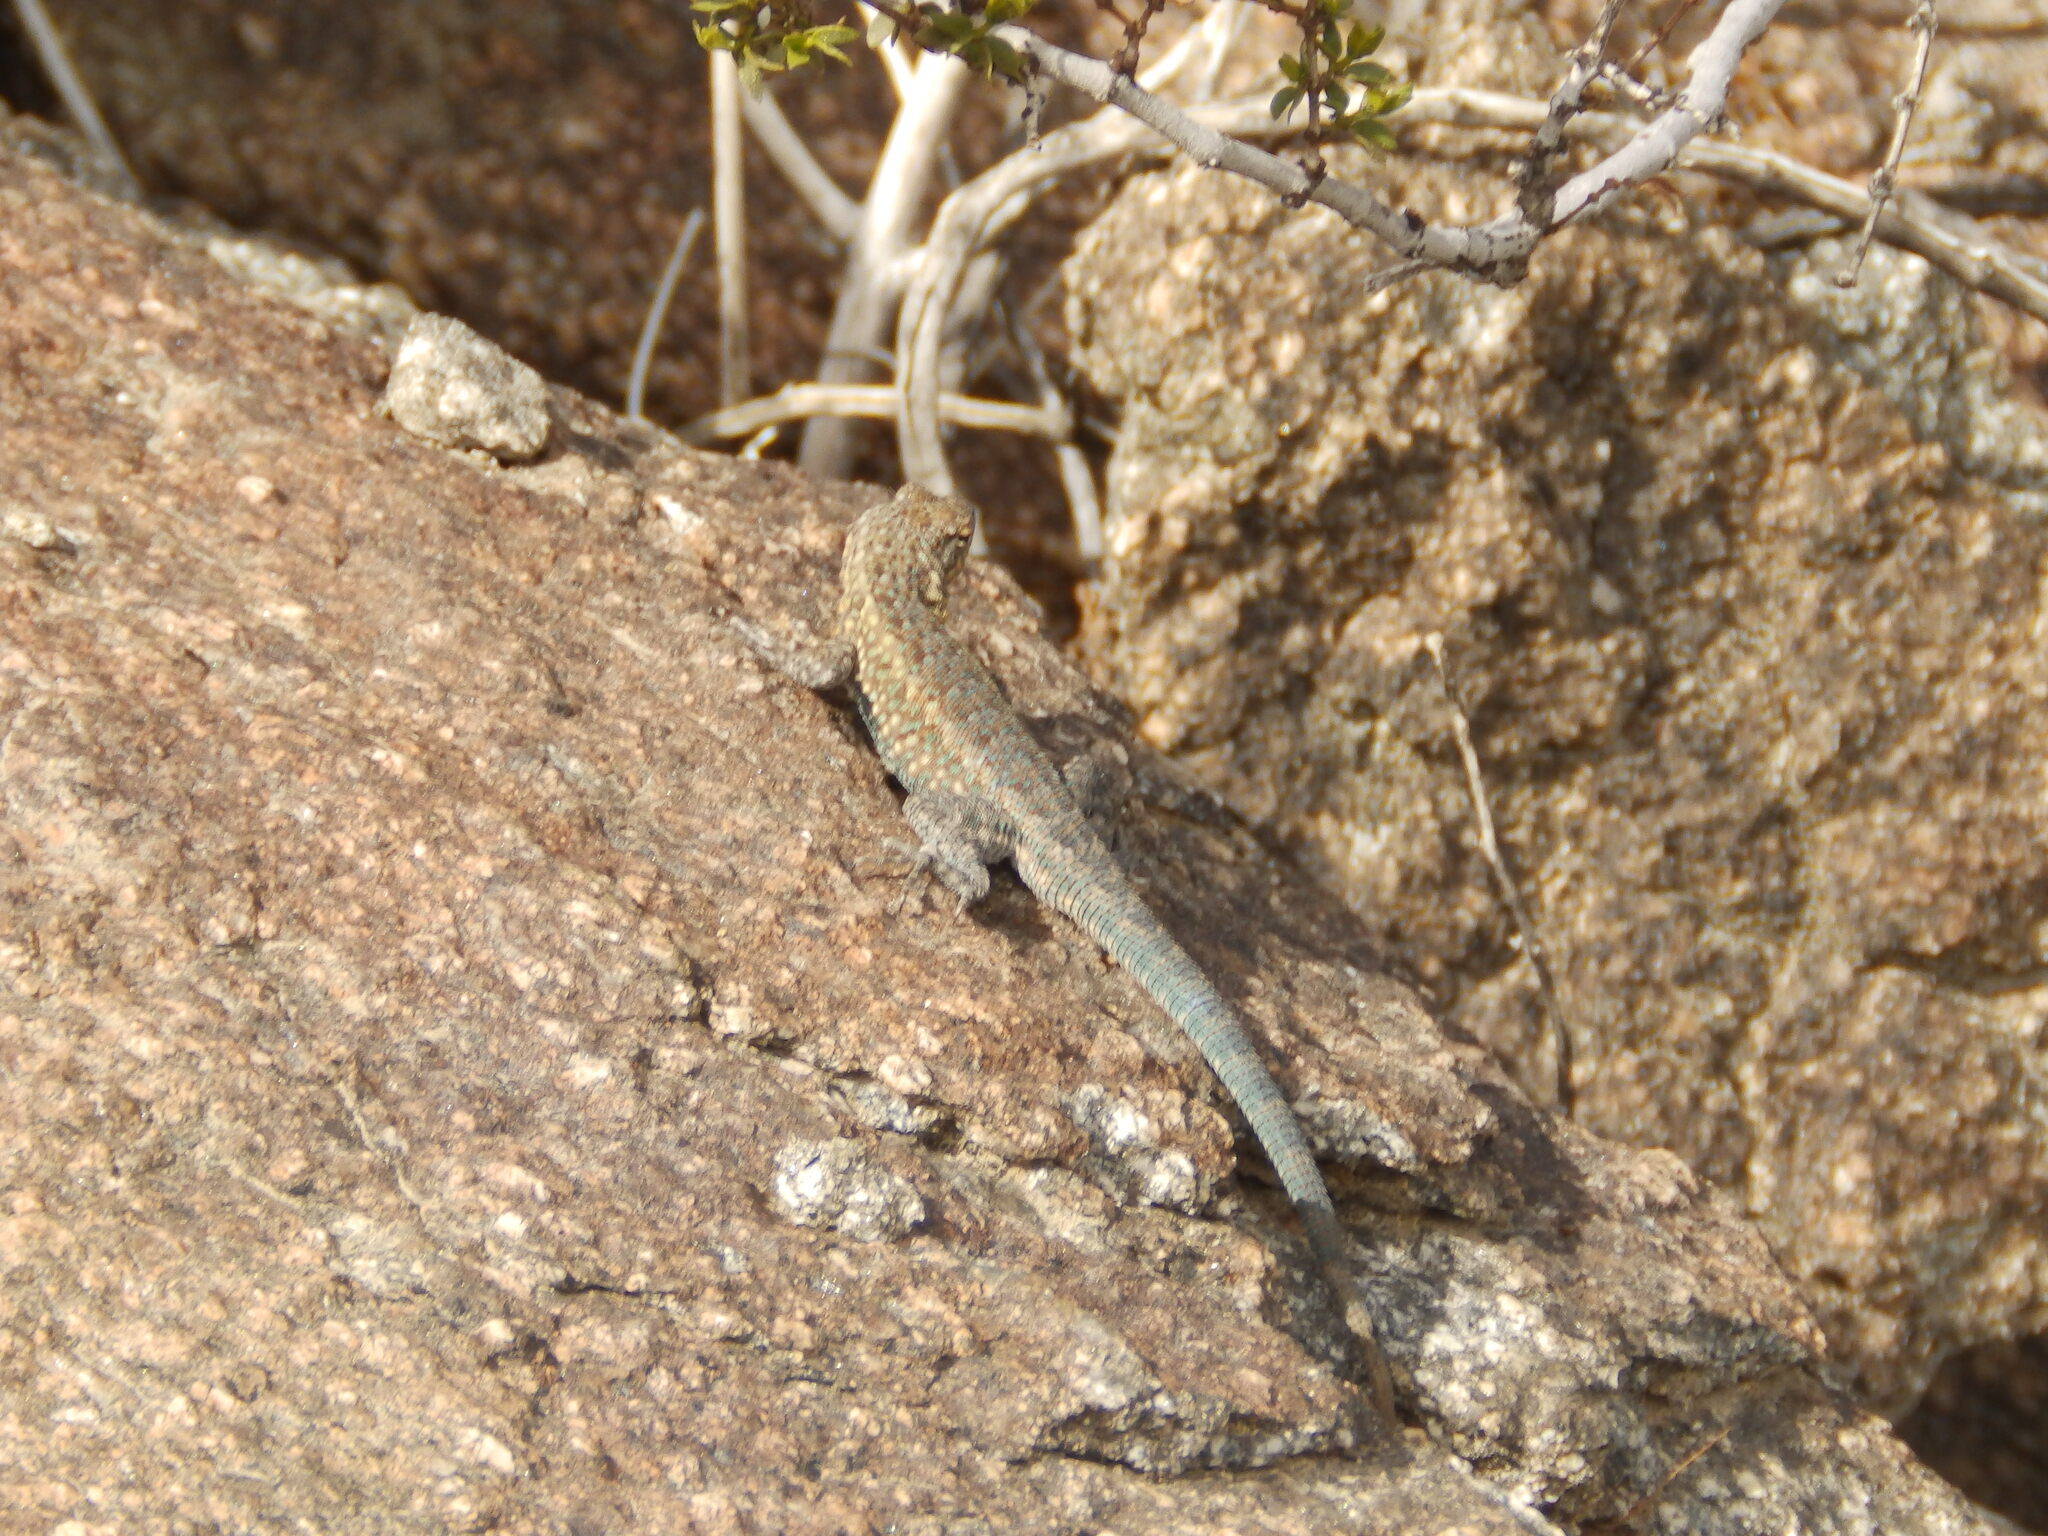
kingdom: Animalia
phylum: Chordata
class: Squamata
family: Phrynosomatidae
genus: Uta
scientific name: Uta stansburiana
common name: Side-blotched lizard
